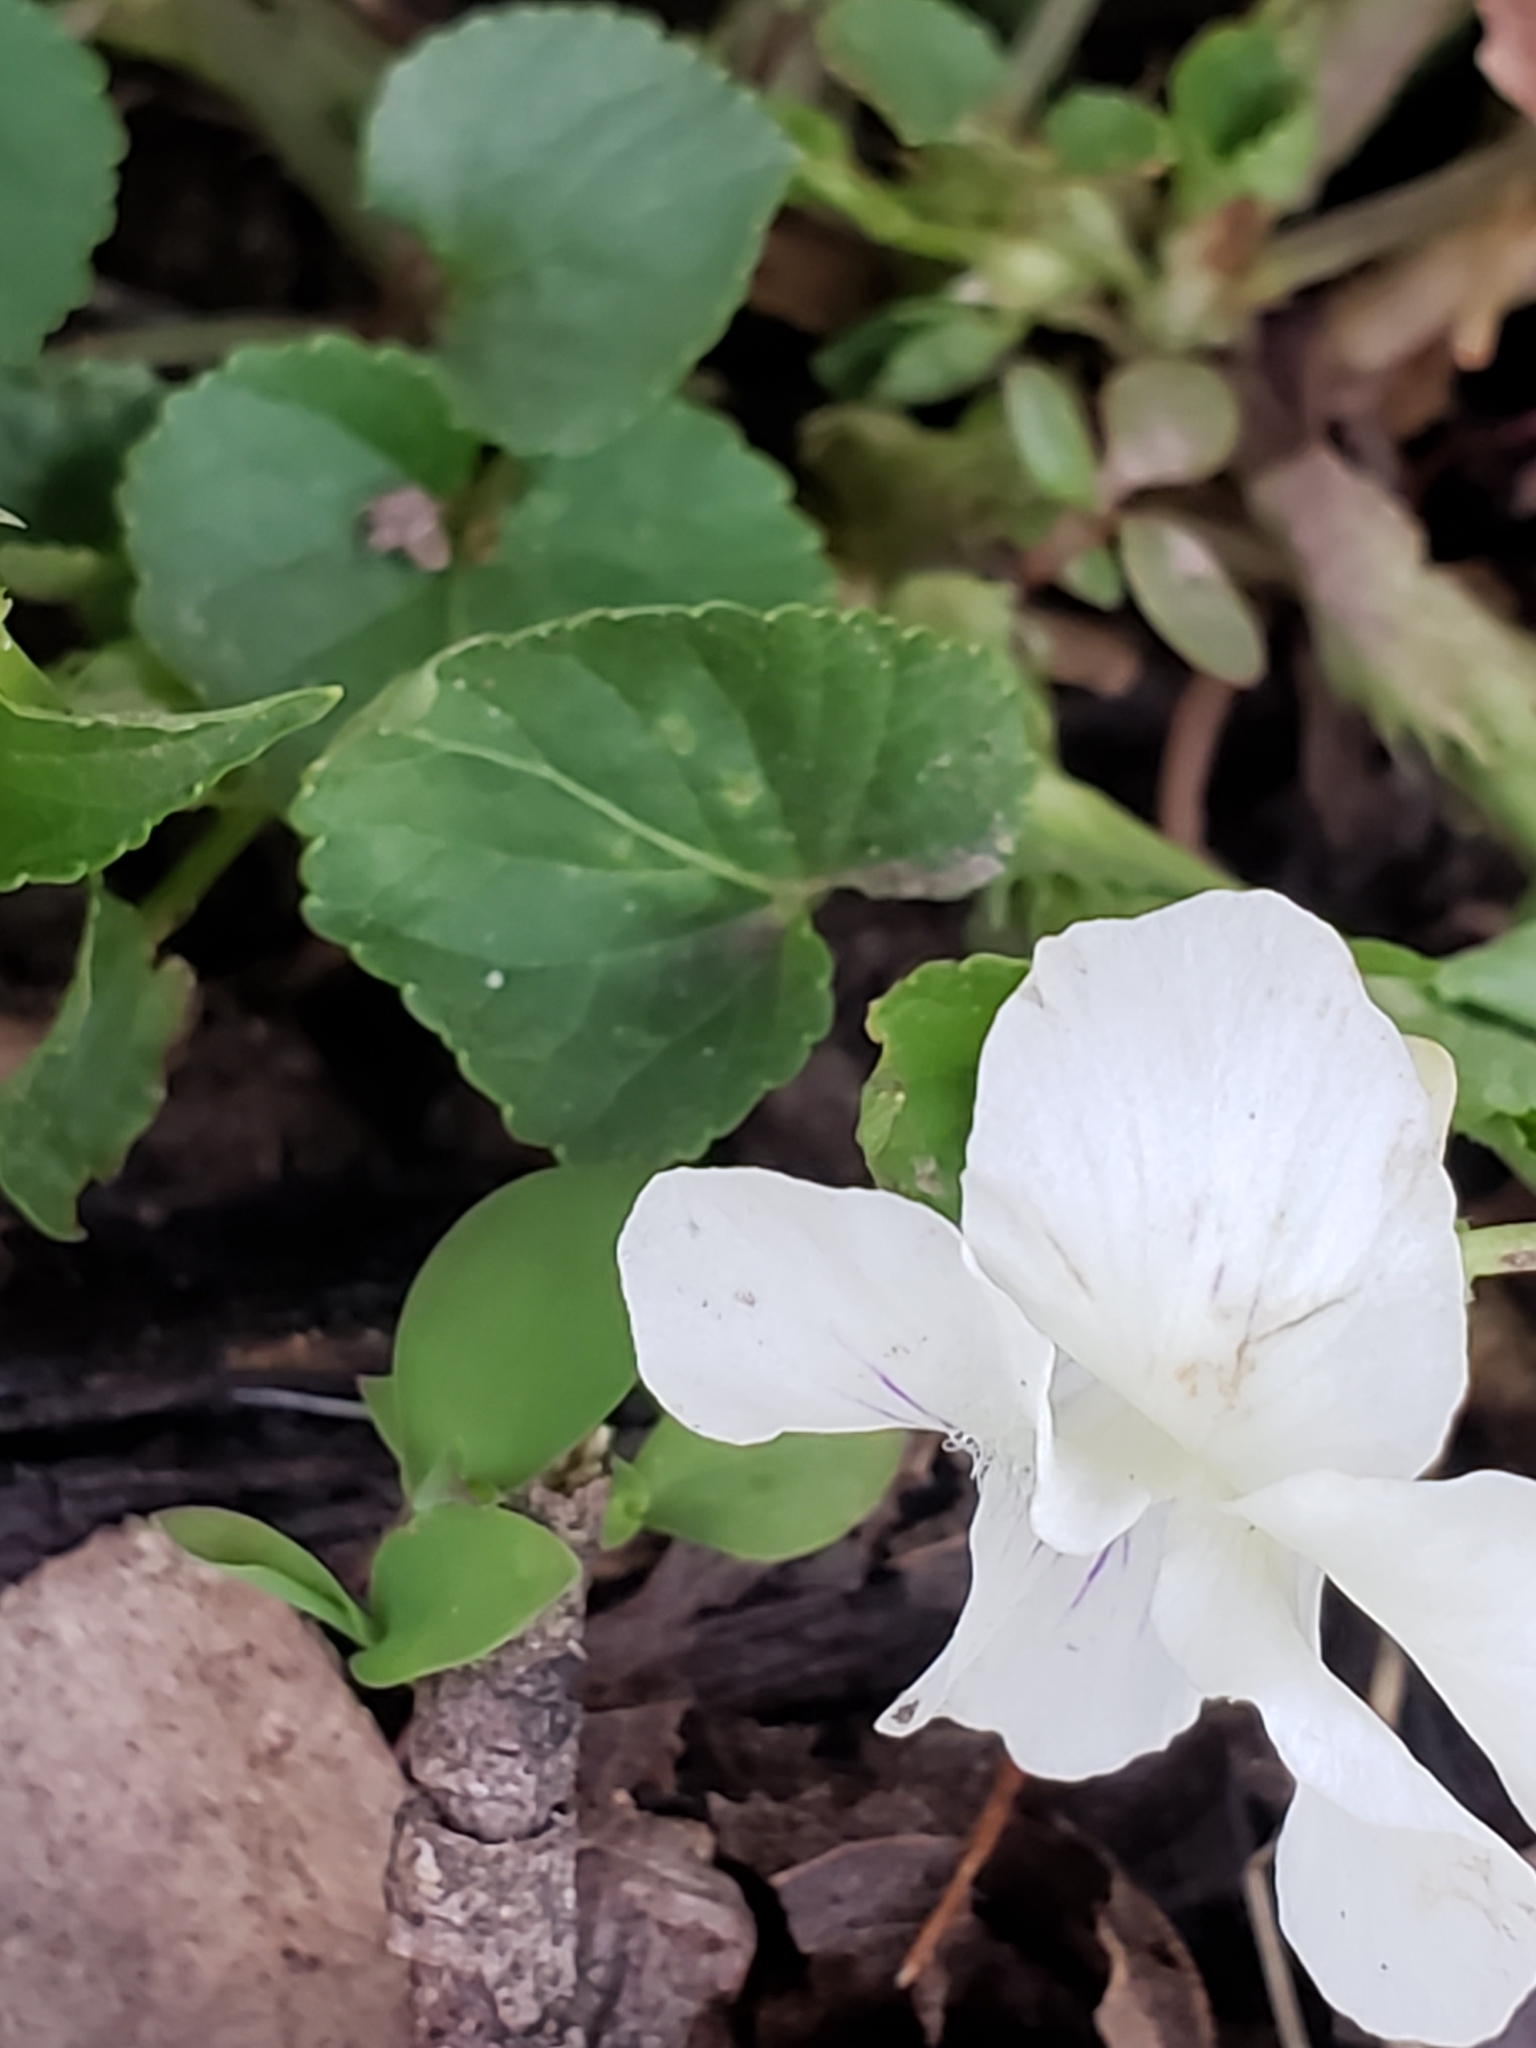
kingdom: Plantae
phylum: Tracheophyta
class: Magnoliopsida
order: Malpighiales
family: Violaceae
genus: Viola
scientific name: Viola striata
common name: Cream violet
